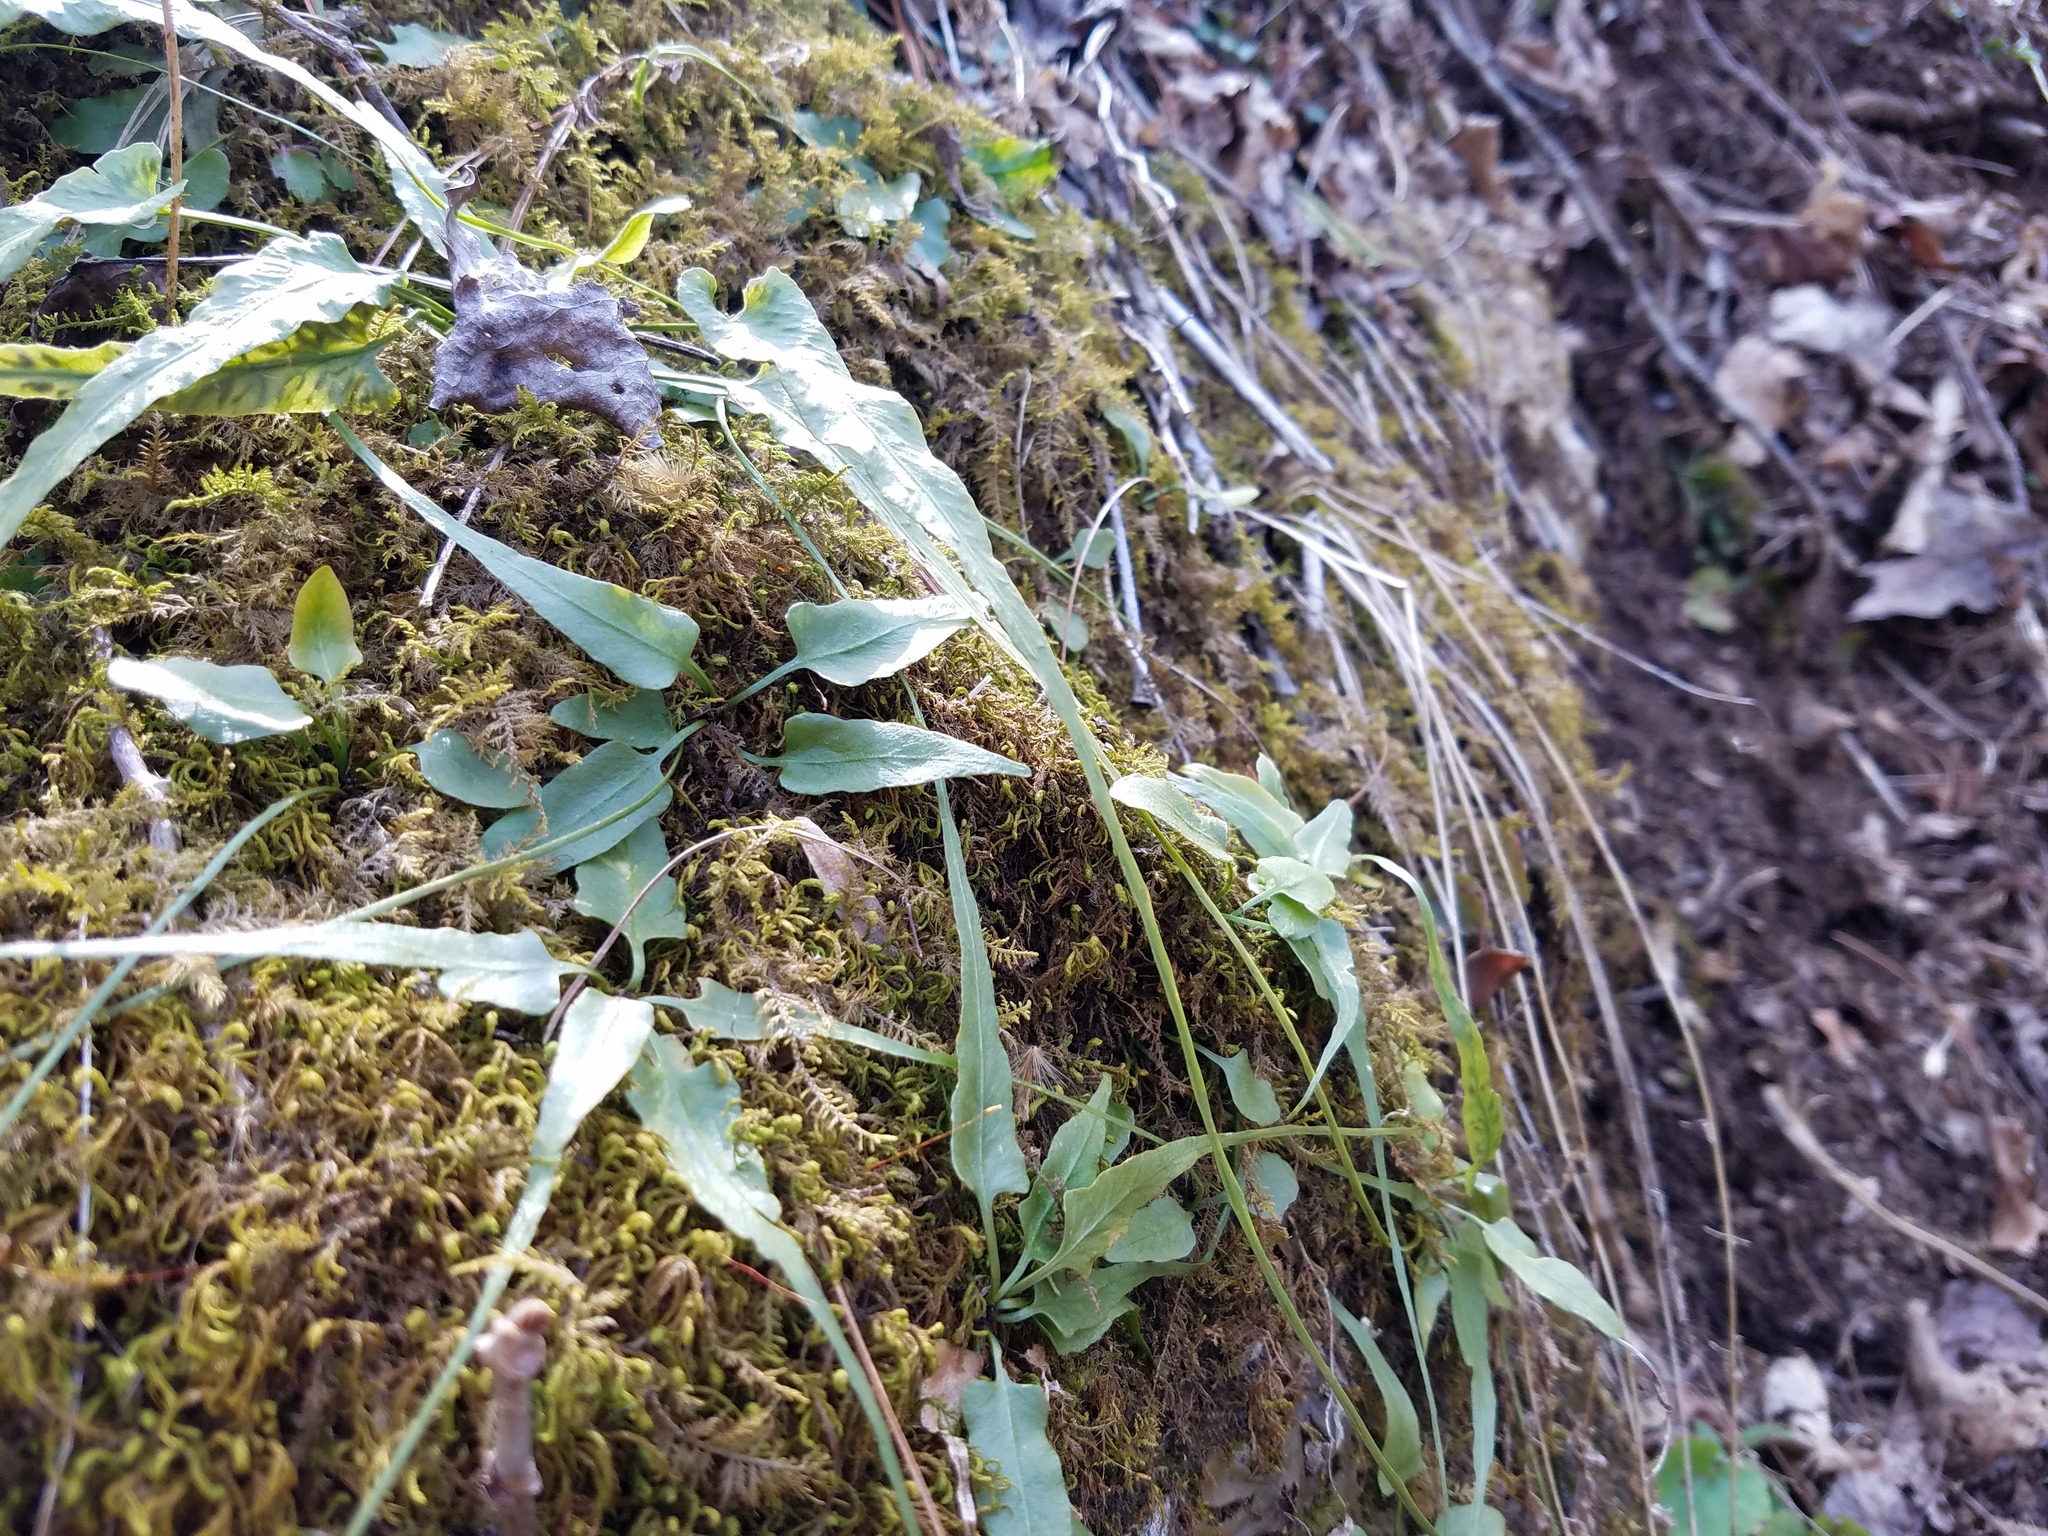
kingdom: Plantae
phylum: Tracheophyta
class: Polypodiopsida
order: Polypodiales
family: Aspleniaceae
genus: Asplenium
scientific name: Asplenium rhizophyllum
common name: Walking fern
